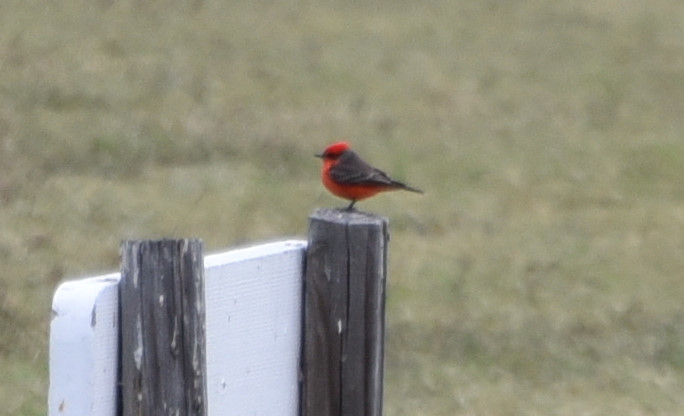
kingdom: Animalia
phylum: Chordata
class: Aves
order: Passeriformes
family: Tyrannidae
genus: Pyrocephalus
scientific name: Pyrocephalus rubinus
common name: Vermilion flycatcher
